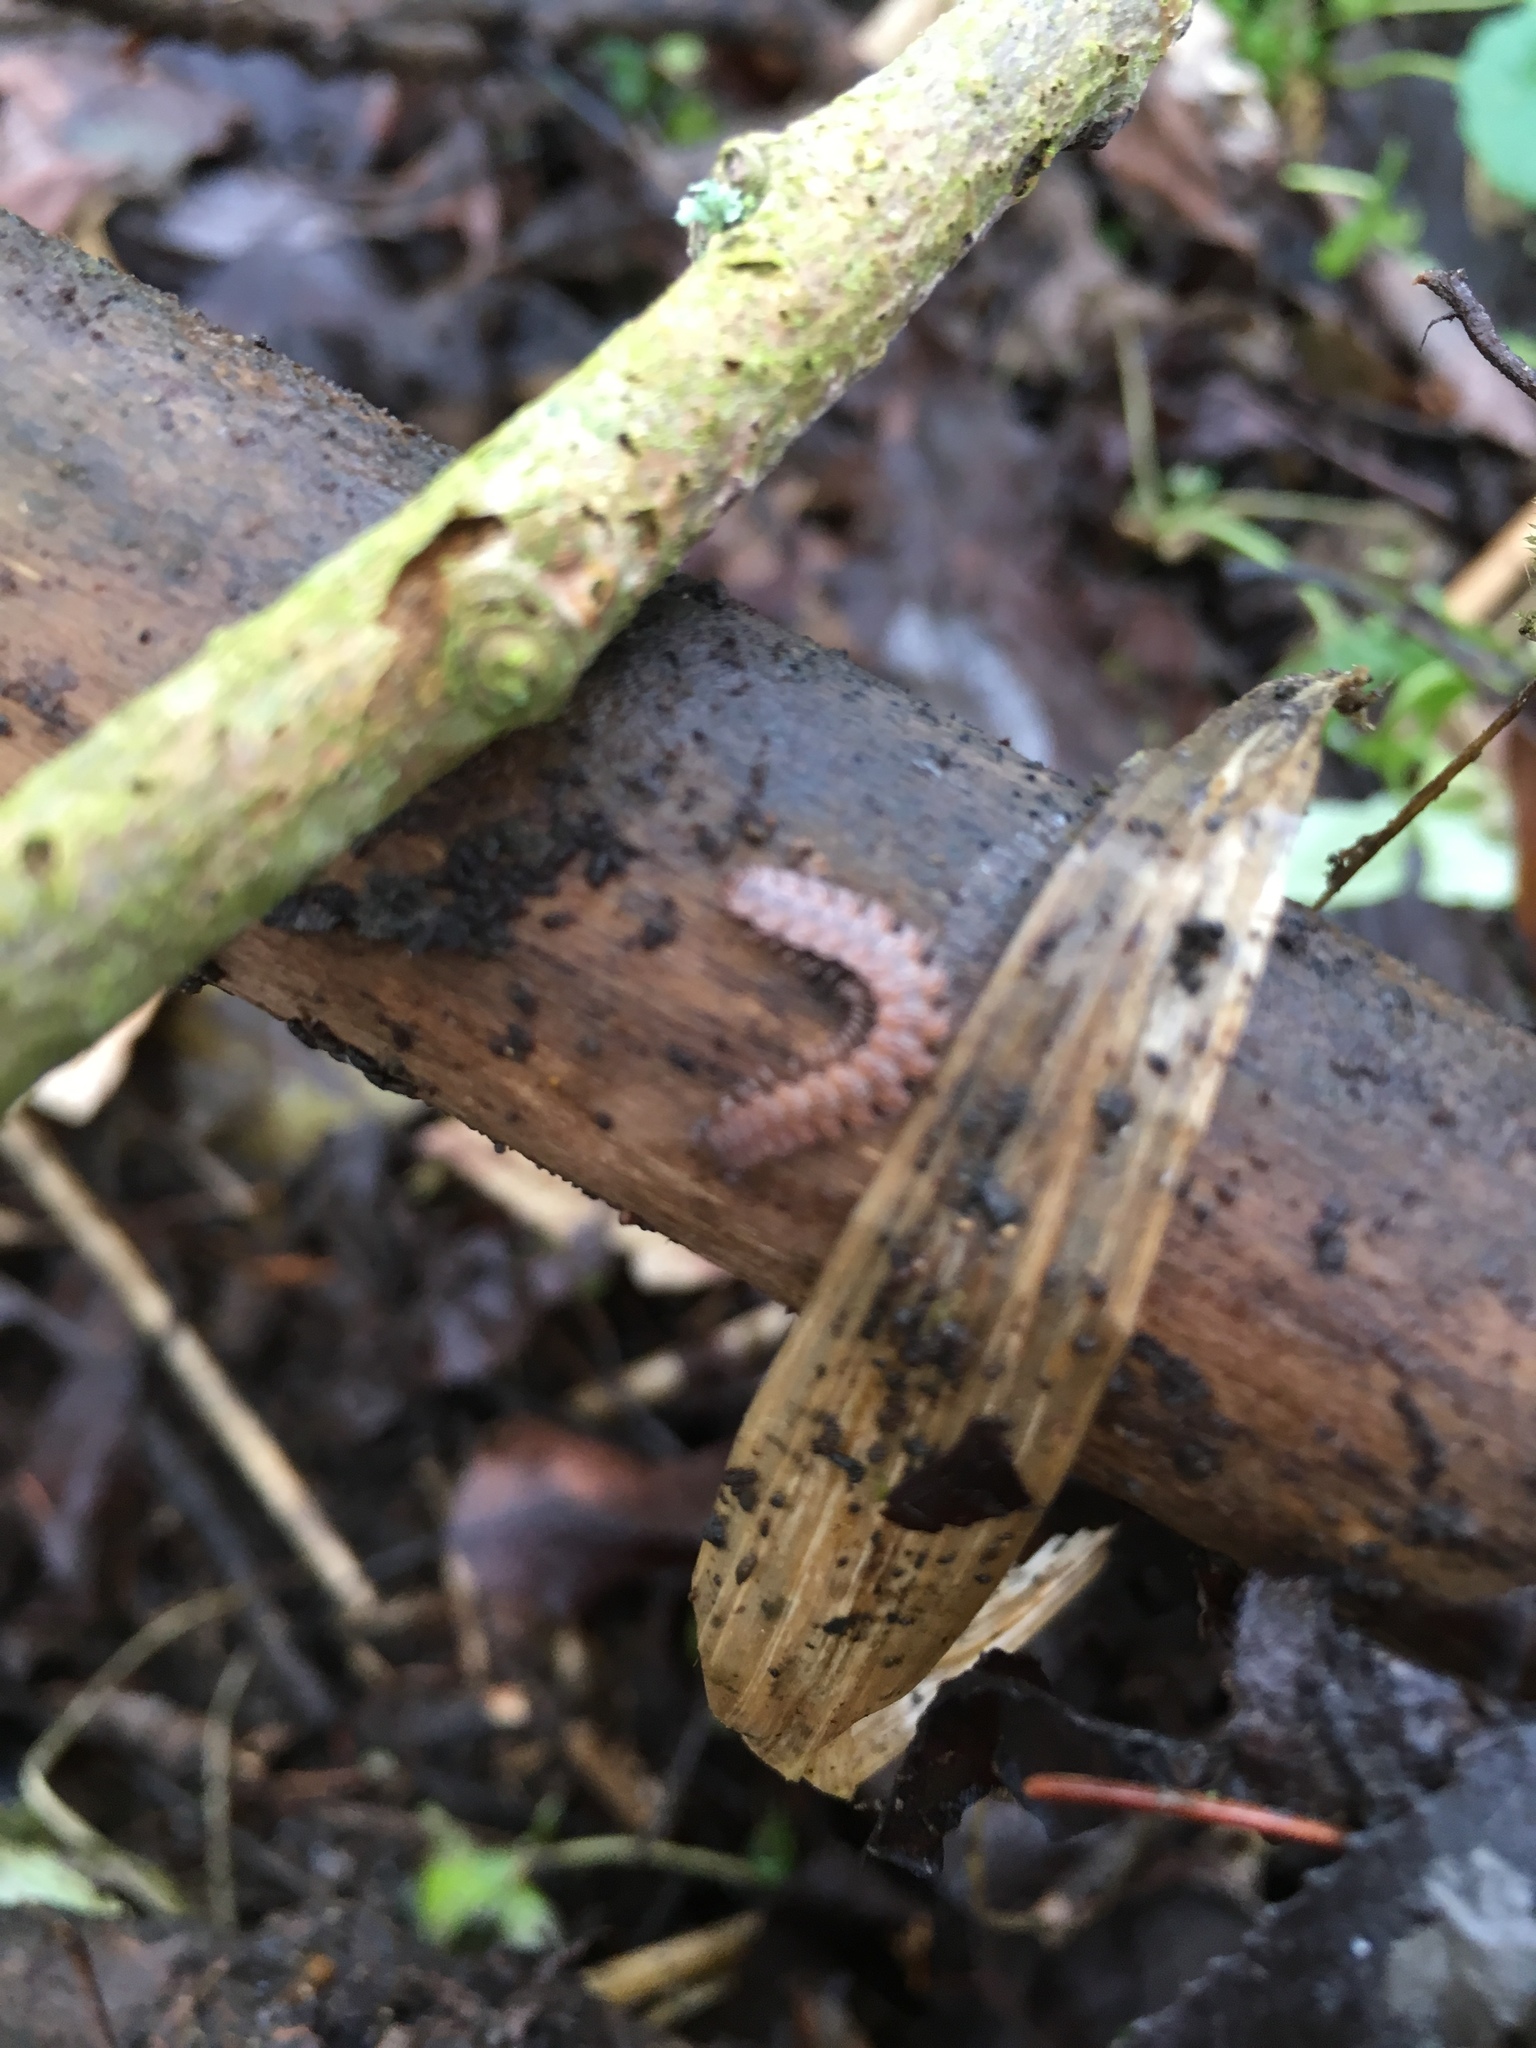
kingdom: Animalia
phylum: Arthropoda
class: Diplopoda
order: Polydesmida
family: Polydesmidae
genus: Polydesmus
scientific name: Polydesmus angustus
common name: Flat millipede
